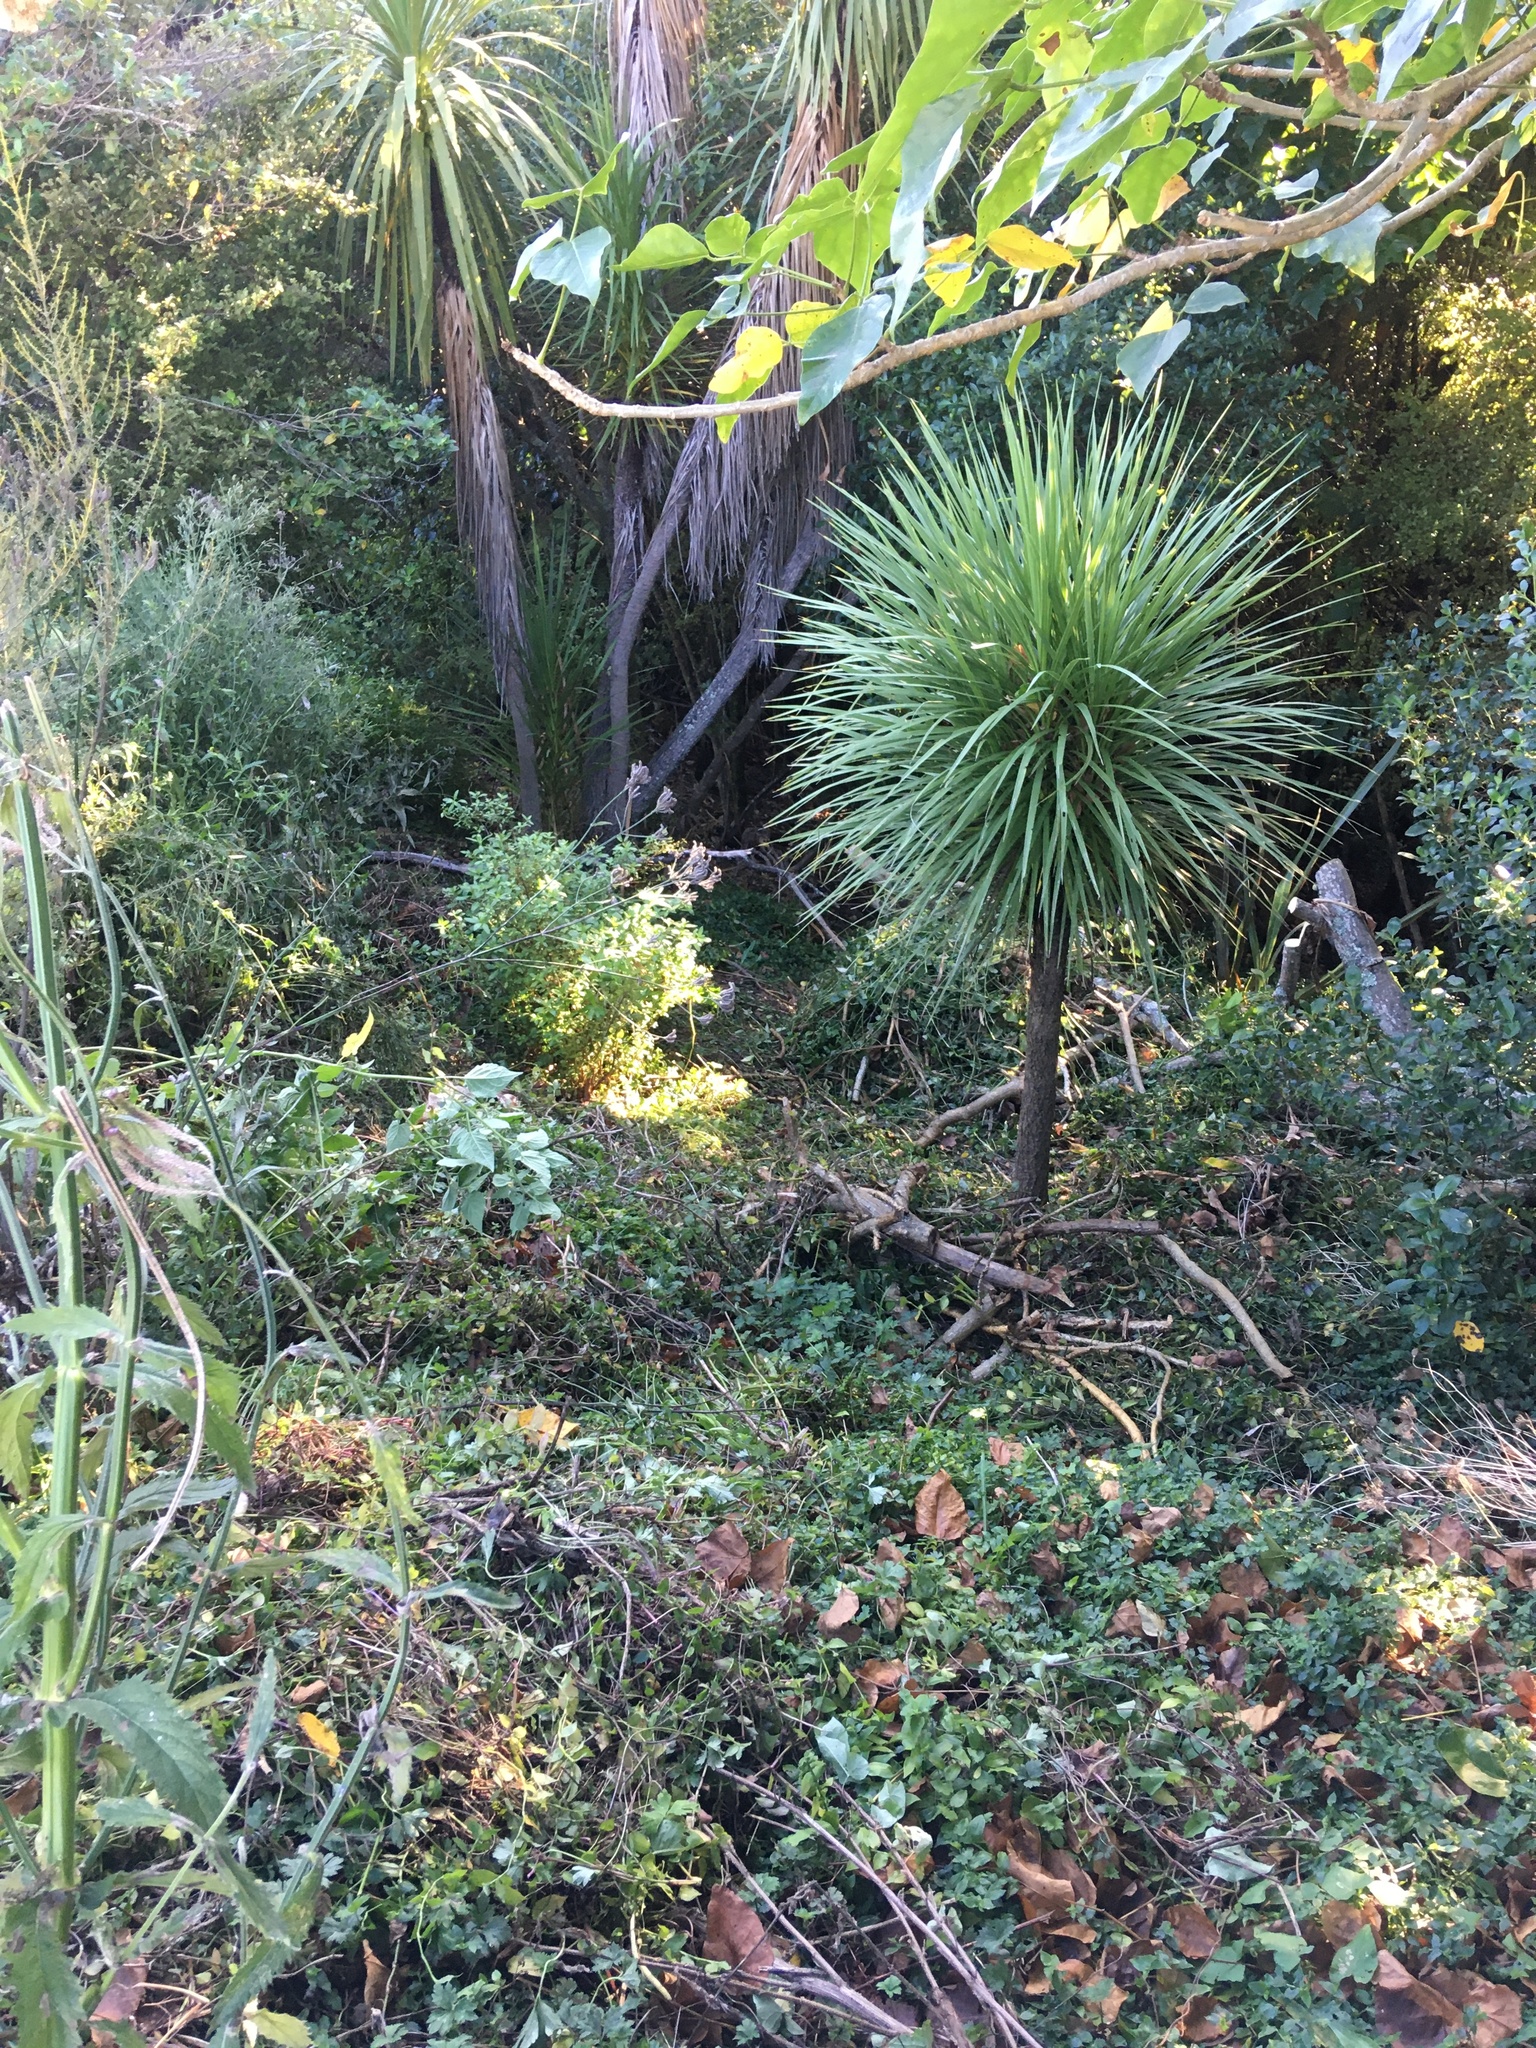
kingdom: Plantae
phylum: Tracheophyta
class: Liliopsida
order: Commelinales
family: Commelinaceae
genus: Tradescantia
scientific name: Tradescantia fluminensis
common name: Wandering-jew
